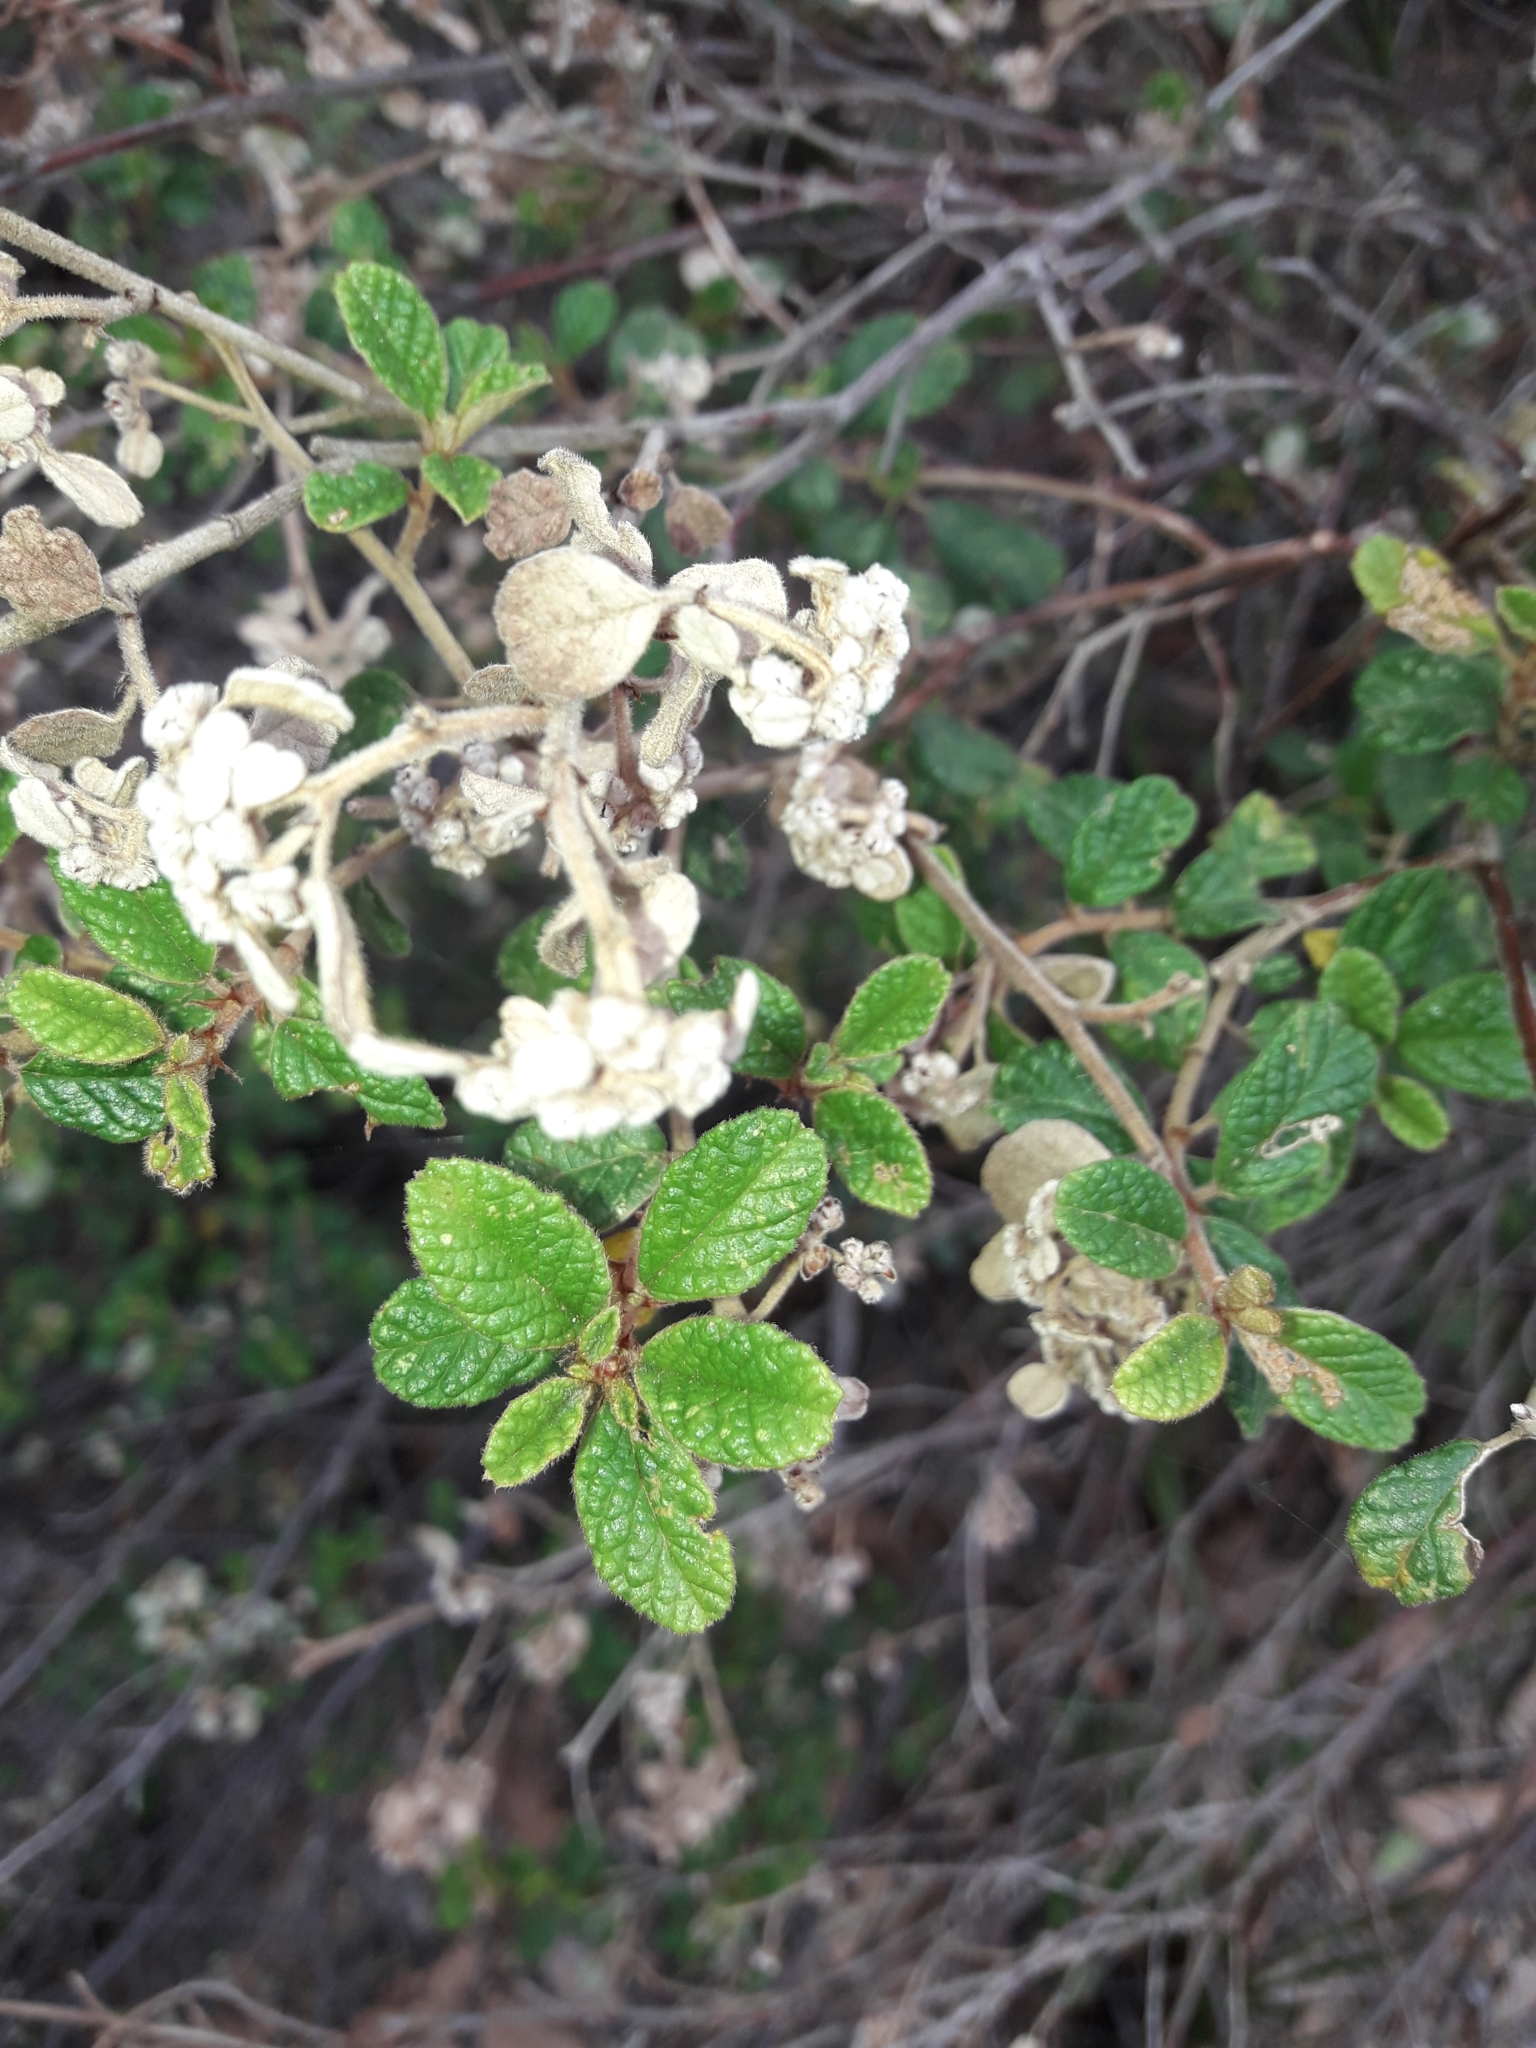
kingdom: Plantae
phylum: Tracheophyta
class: Magnoliopsida
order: Rosales
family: Rhamnaceae
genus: Spyridium
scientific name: Spyridium parvifolium
